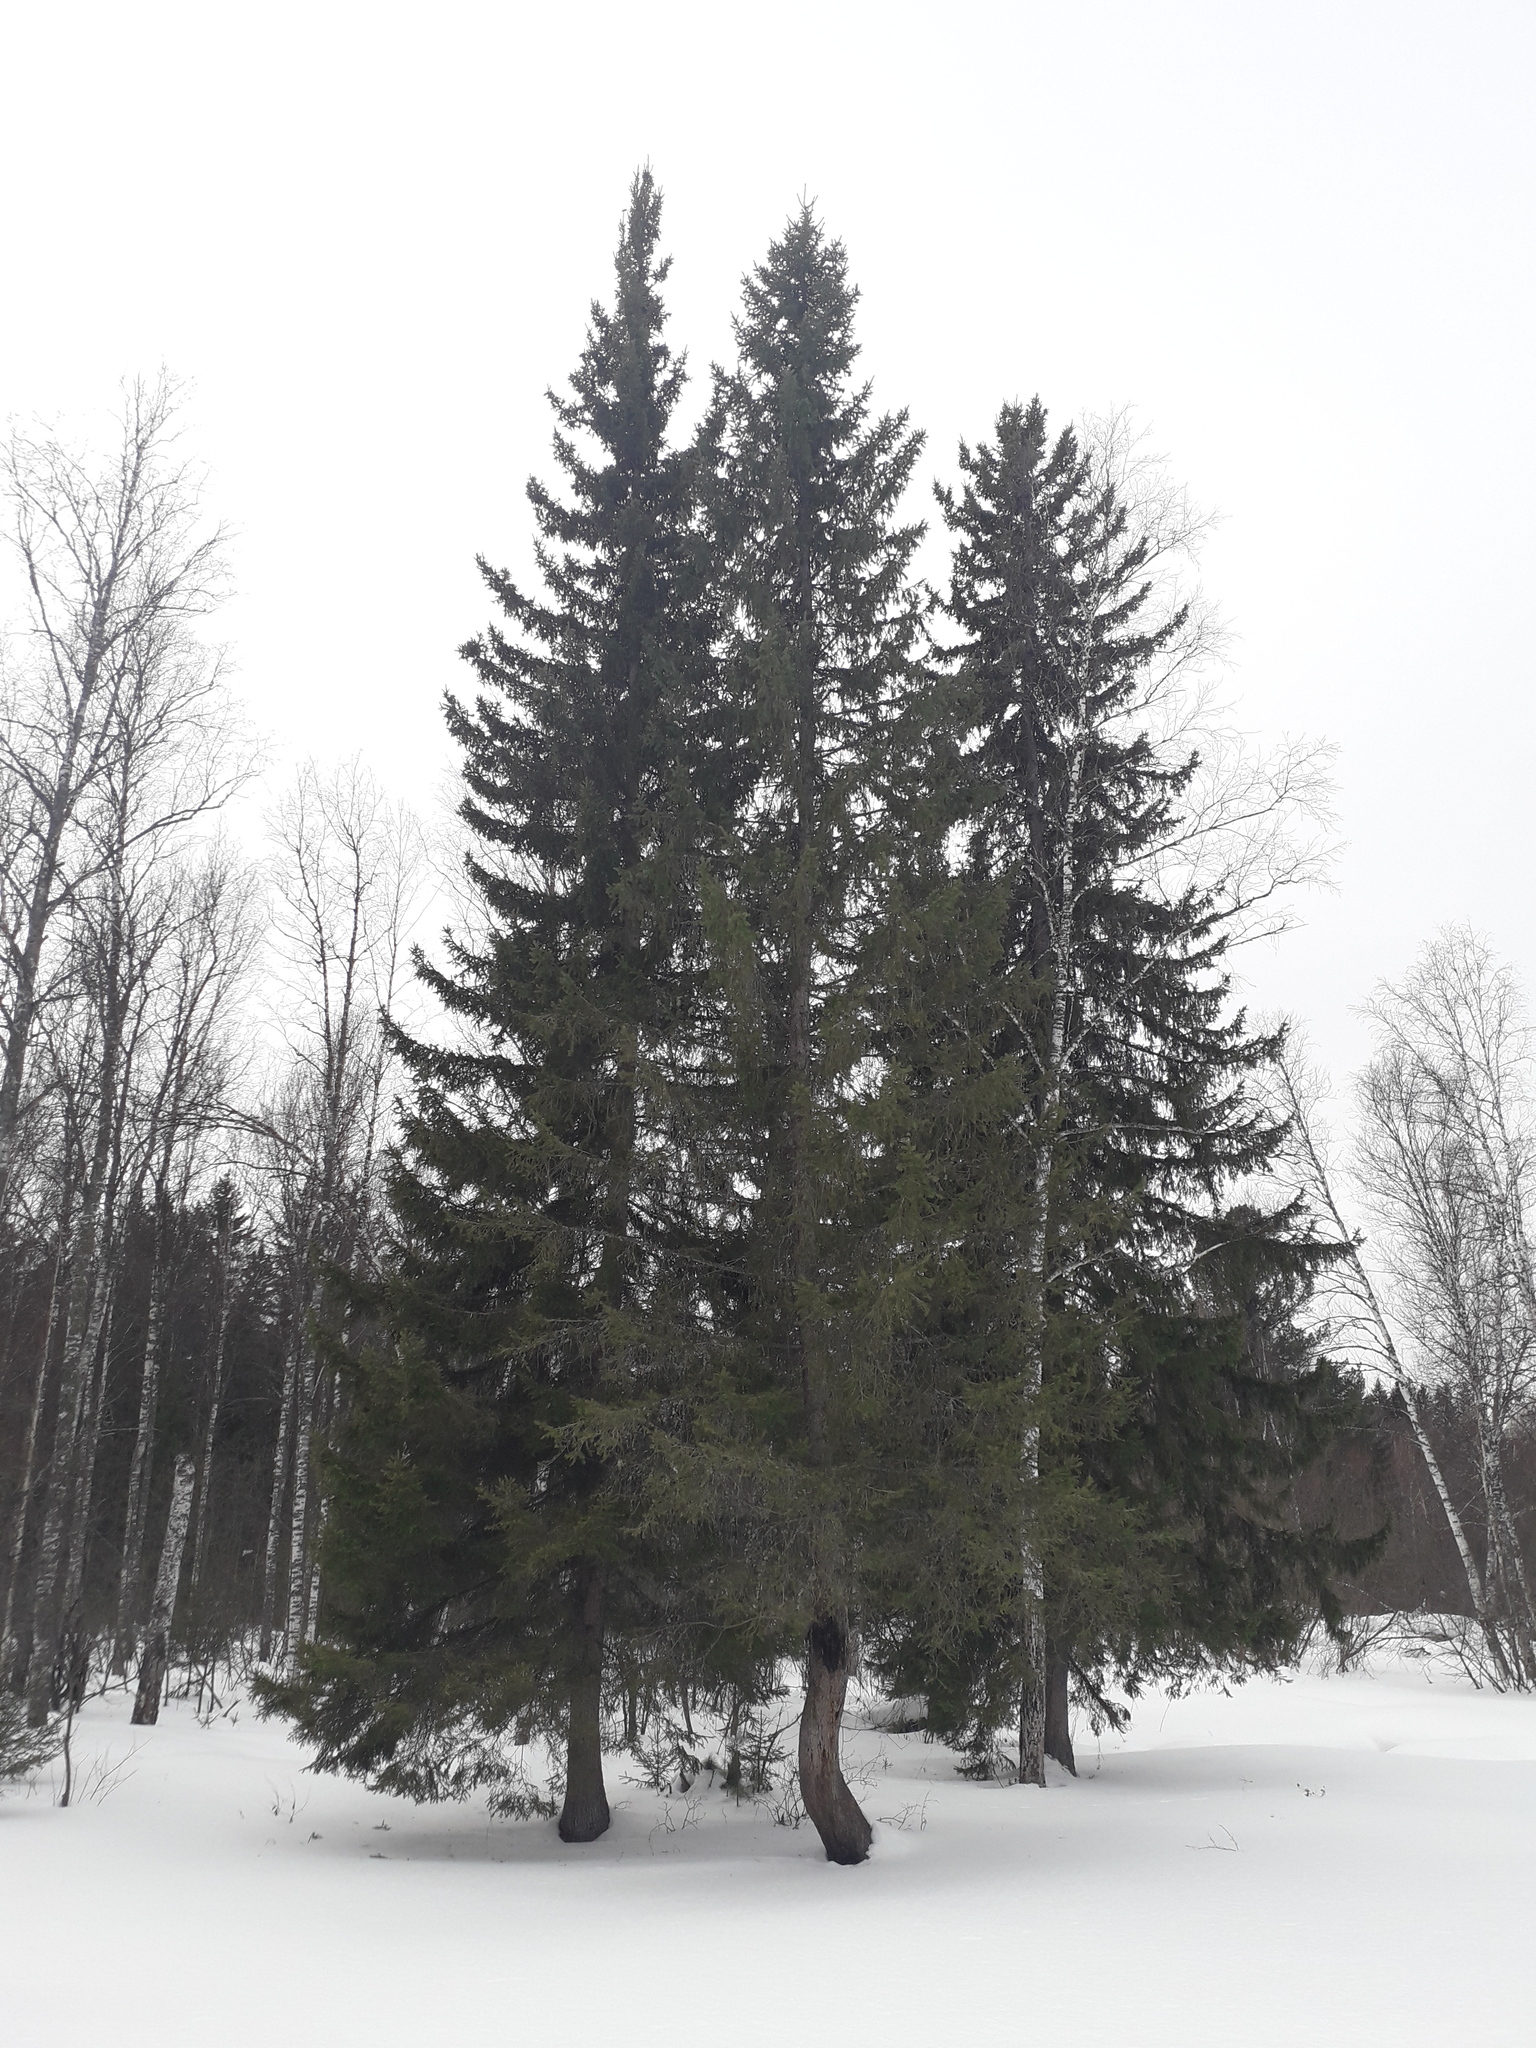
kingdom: Plantae
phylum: Tracheophyta
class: Pinopsida
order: Pinales
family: Pinaceae
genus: Picea
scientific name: Picea obovata
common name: Siberian spruce
